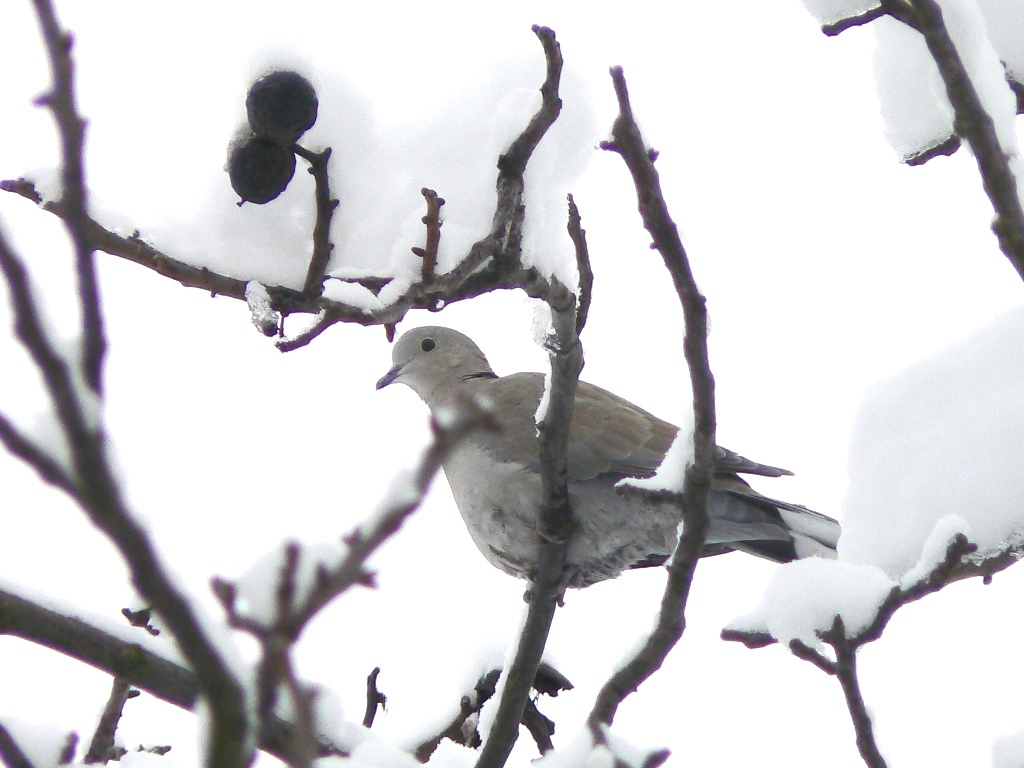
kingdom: Animalia
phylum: Chordata
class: Aves
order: Columbiformes
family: Columbidae
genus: Streptopelia
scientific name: Streptopelia decaocto
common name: Eurasian collared dove
